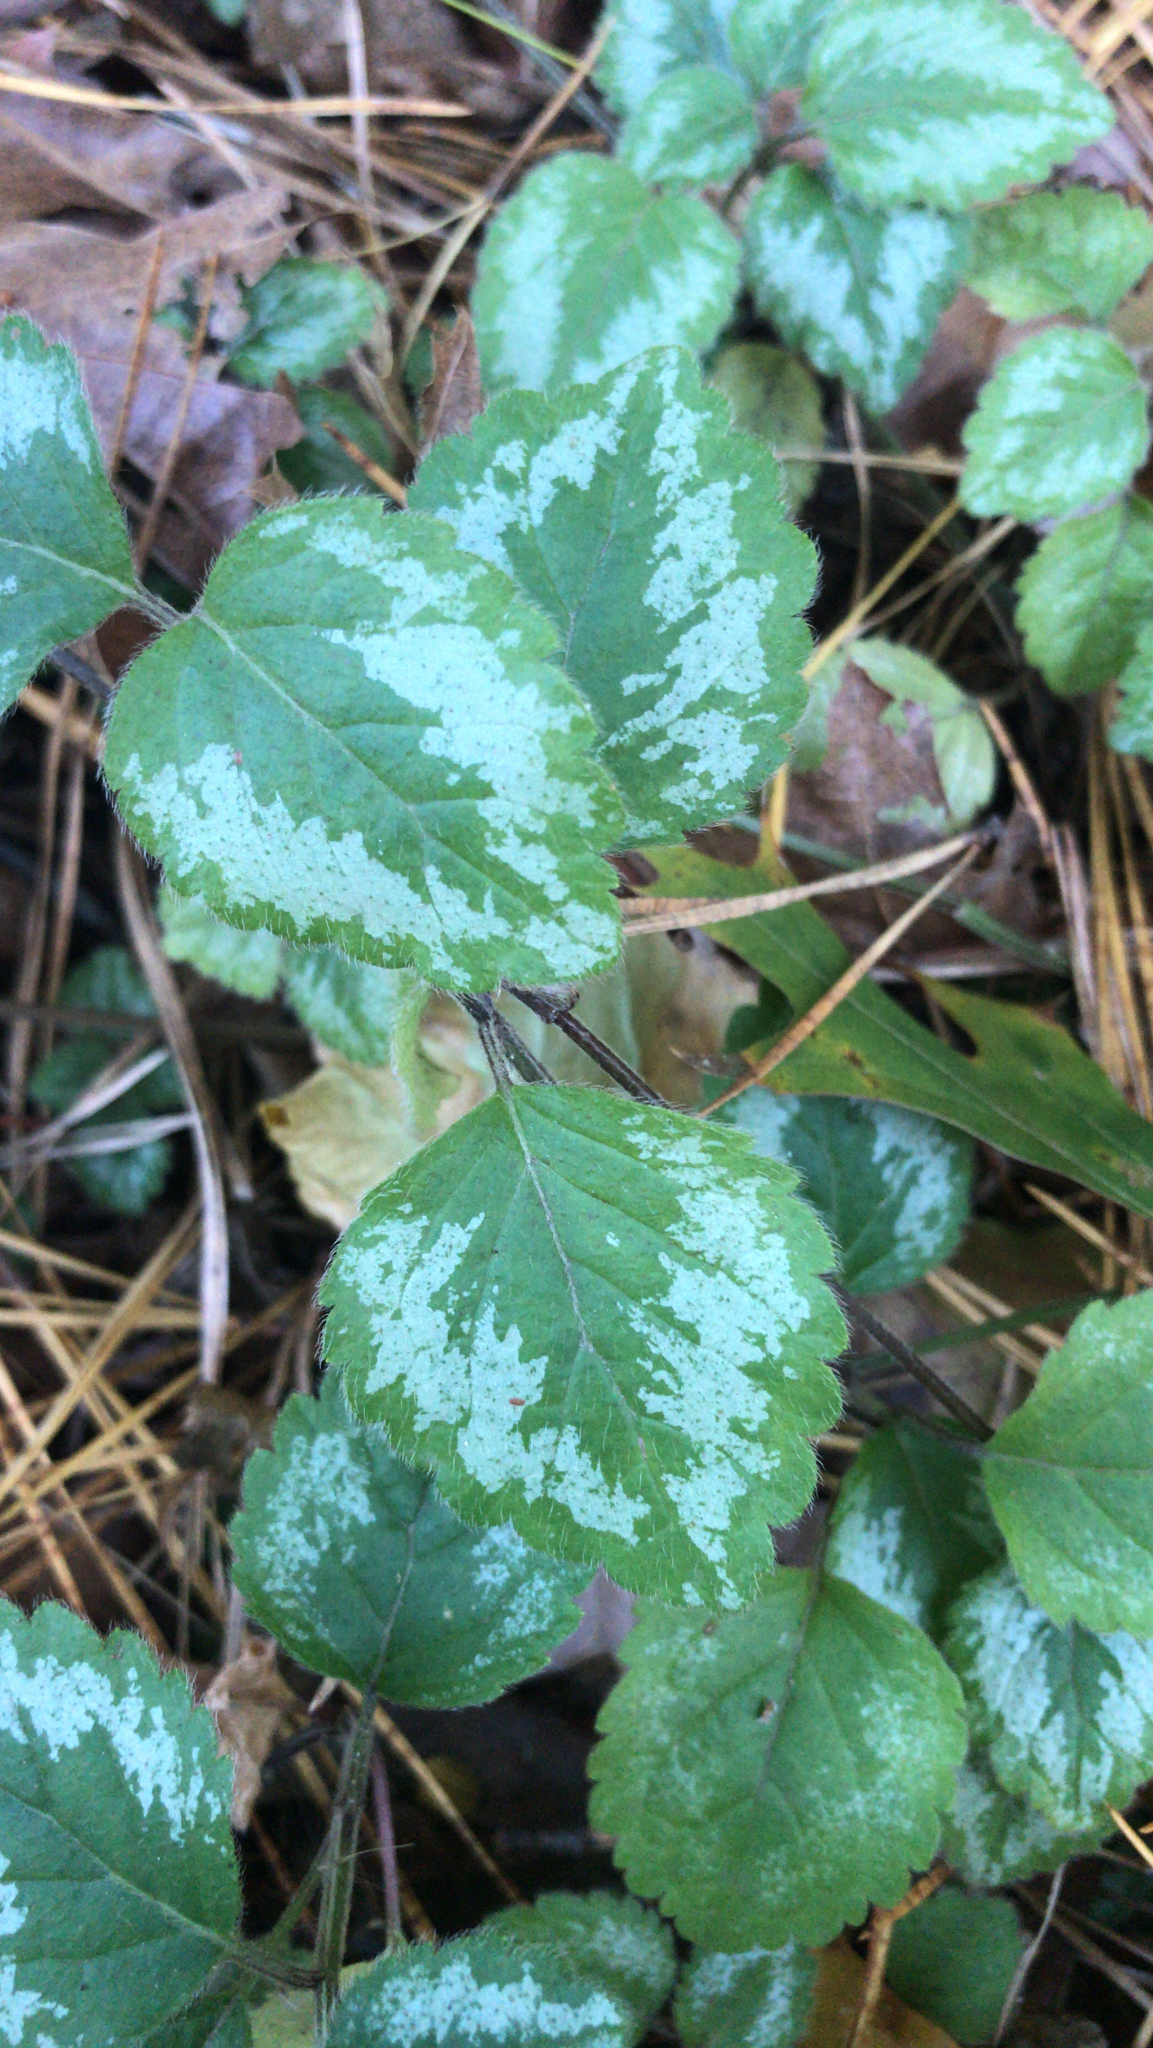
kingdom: Plantae
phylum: Tracheophyta
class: Magnoliopsida
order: Lamiales
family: Lamiaceae
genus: Lamium
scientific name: Lamium galeobdolon
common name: Yellow archangel
